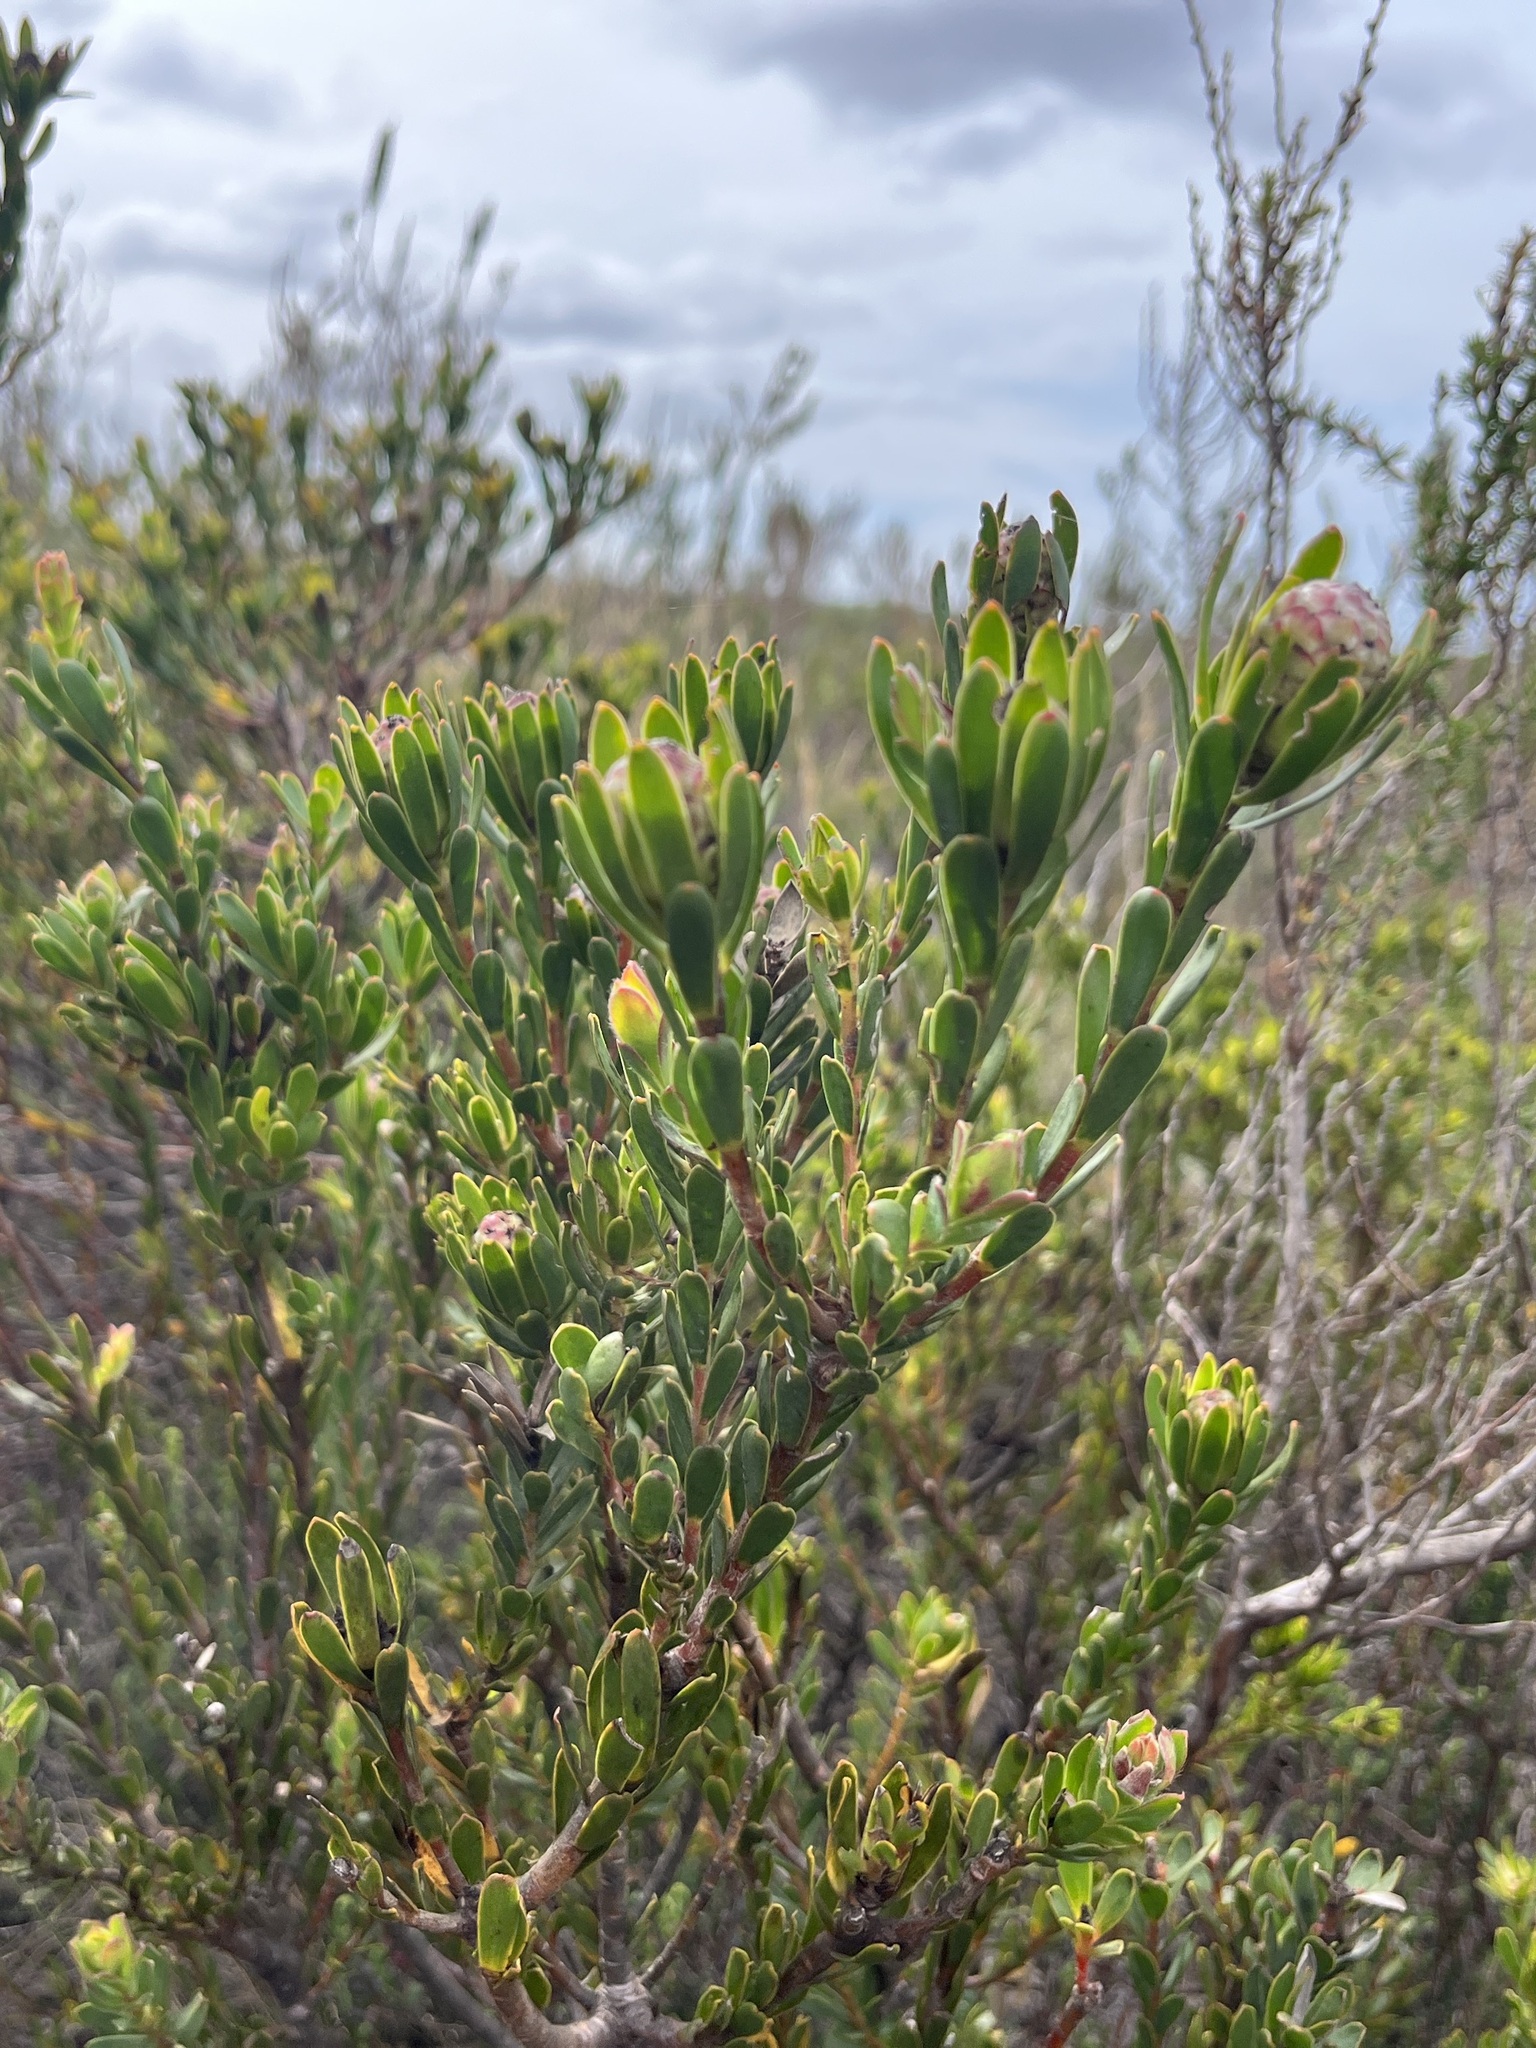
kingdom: Plantae
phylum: Tracheophyta
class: Magnoliopsida
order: Proteales
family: Proteaceae
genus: Leucadendron
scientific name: Leucadendron stelligerum
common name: Agulhas conebush
